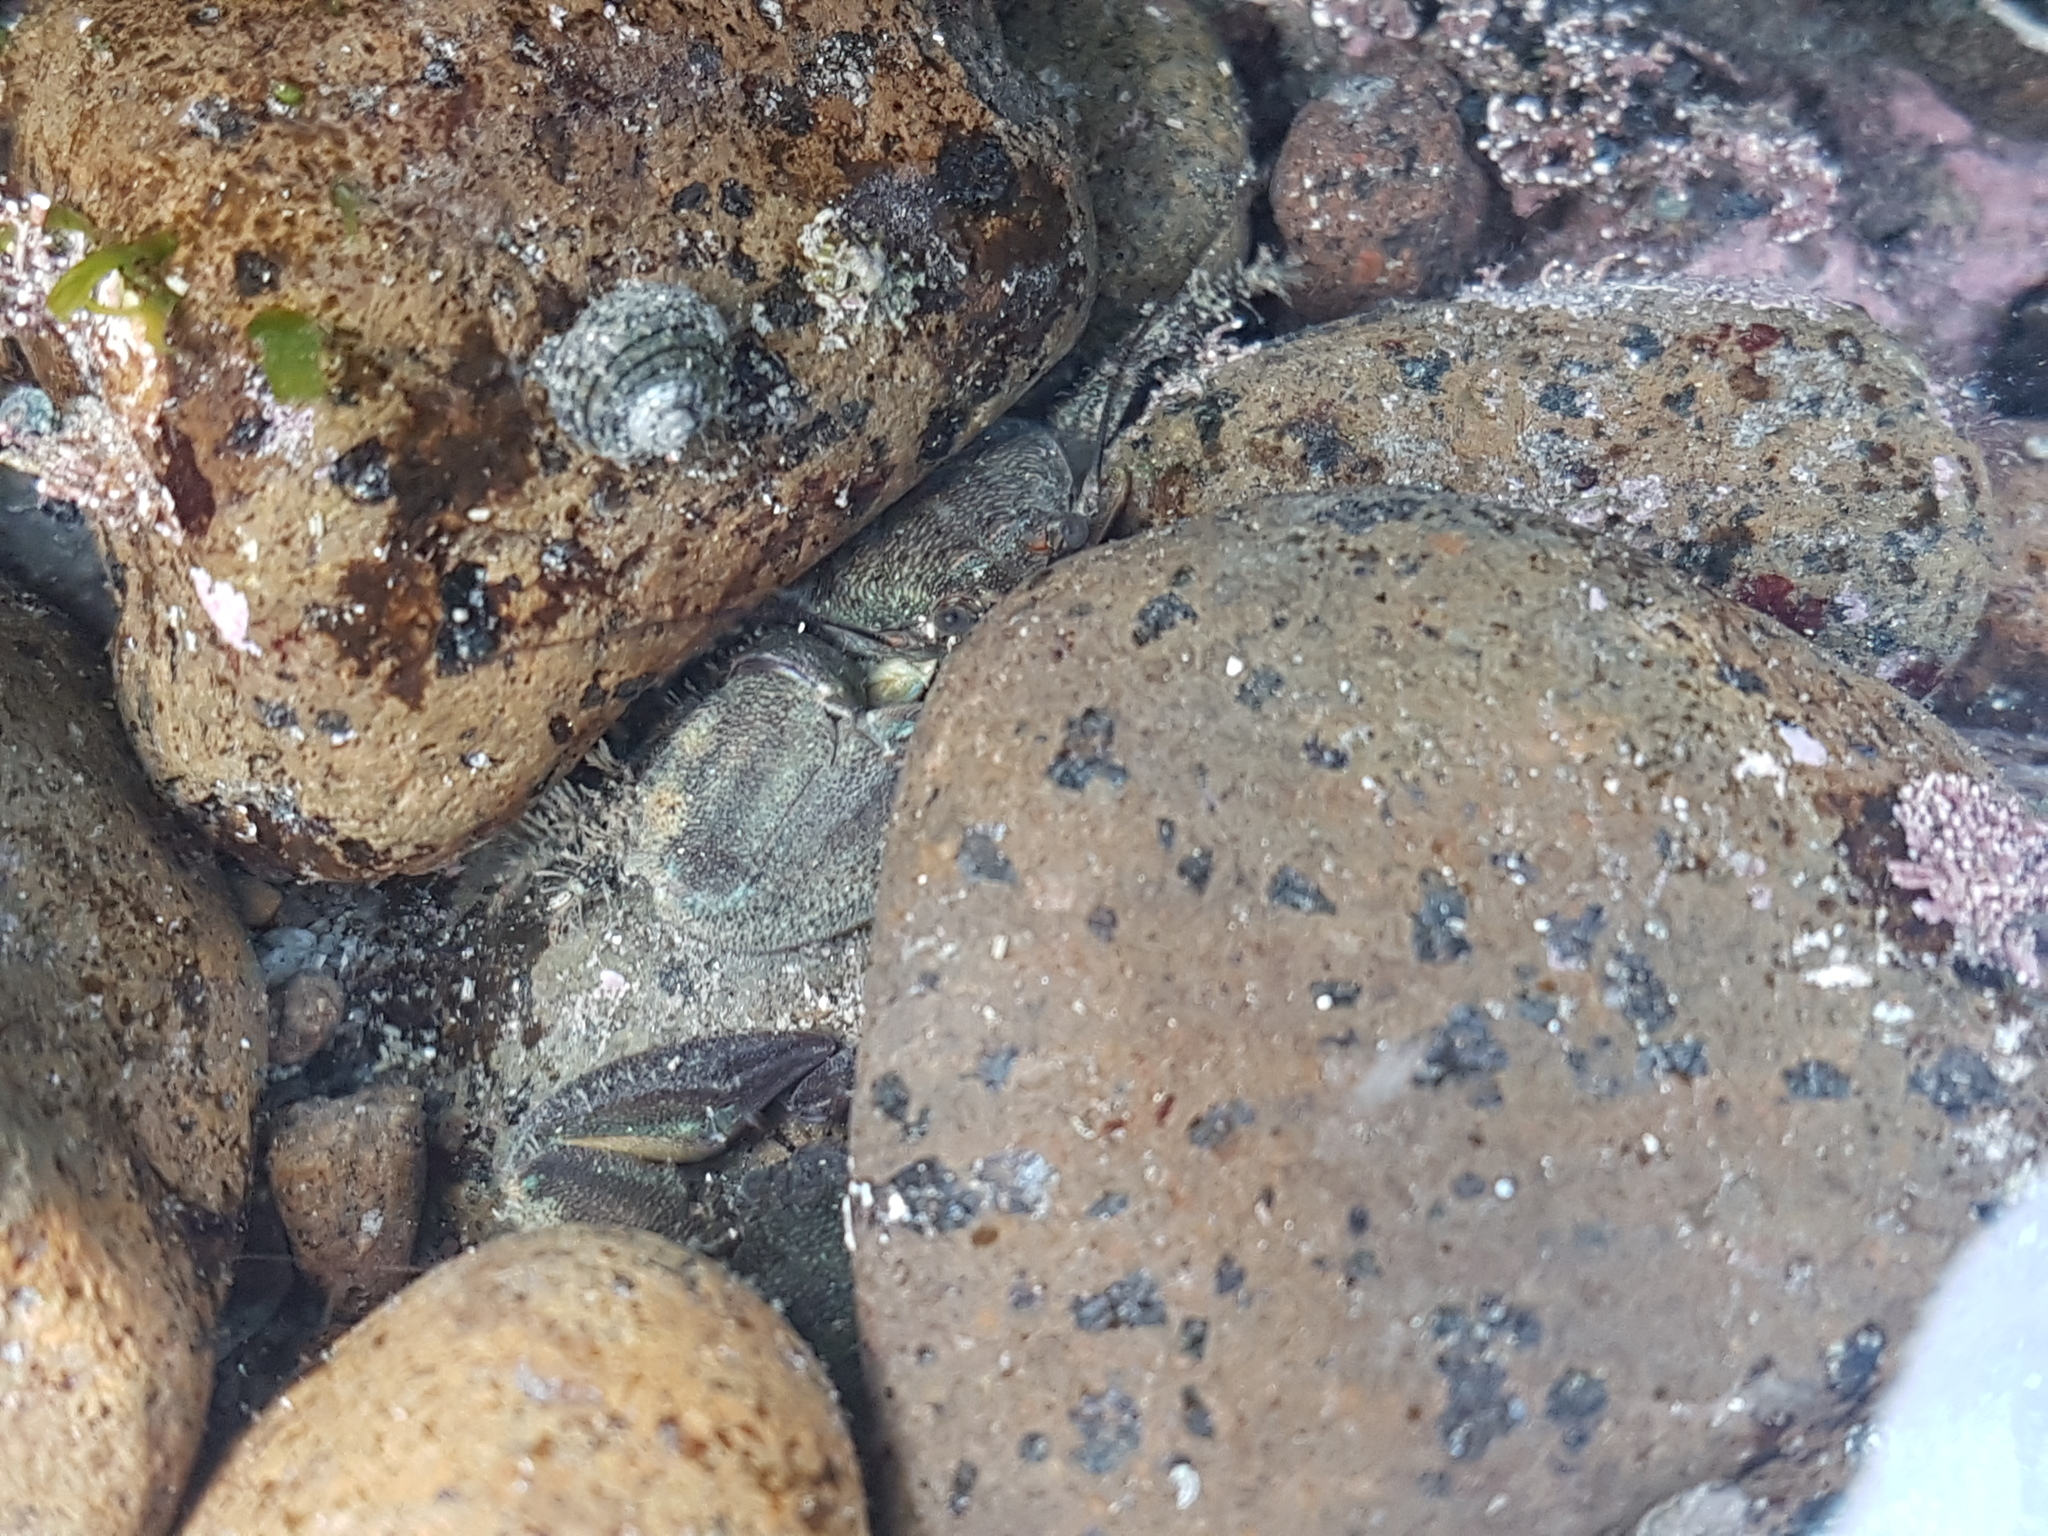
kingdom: Animalia
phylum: Arthropoda
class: Malacostraca
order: Decapoda
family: Porcellanidae
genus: Petrolisthes
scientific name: Petrolisthes elongatus
